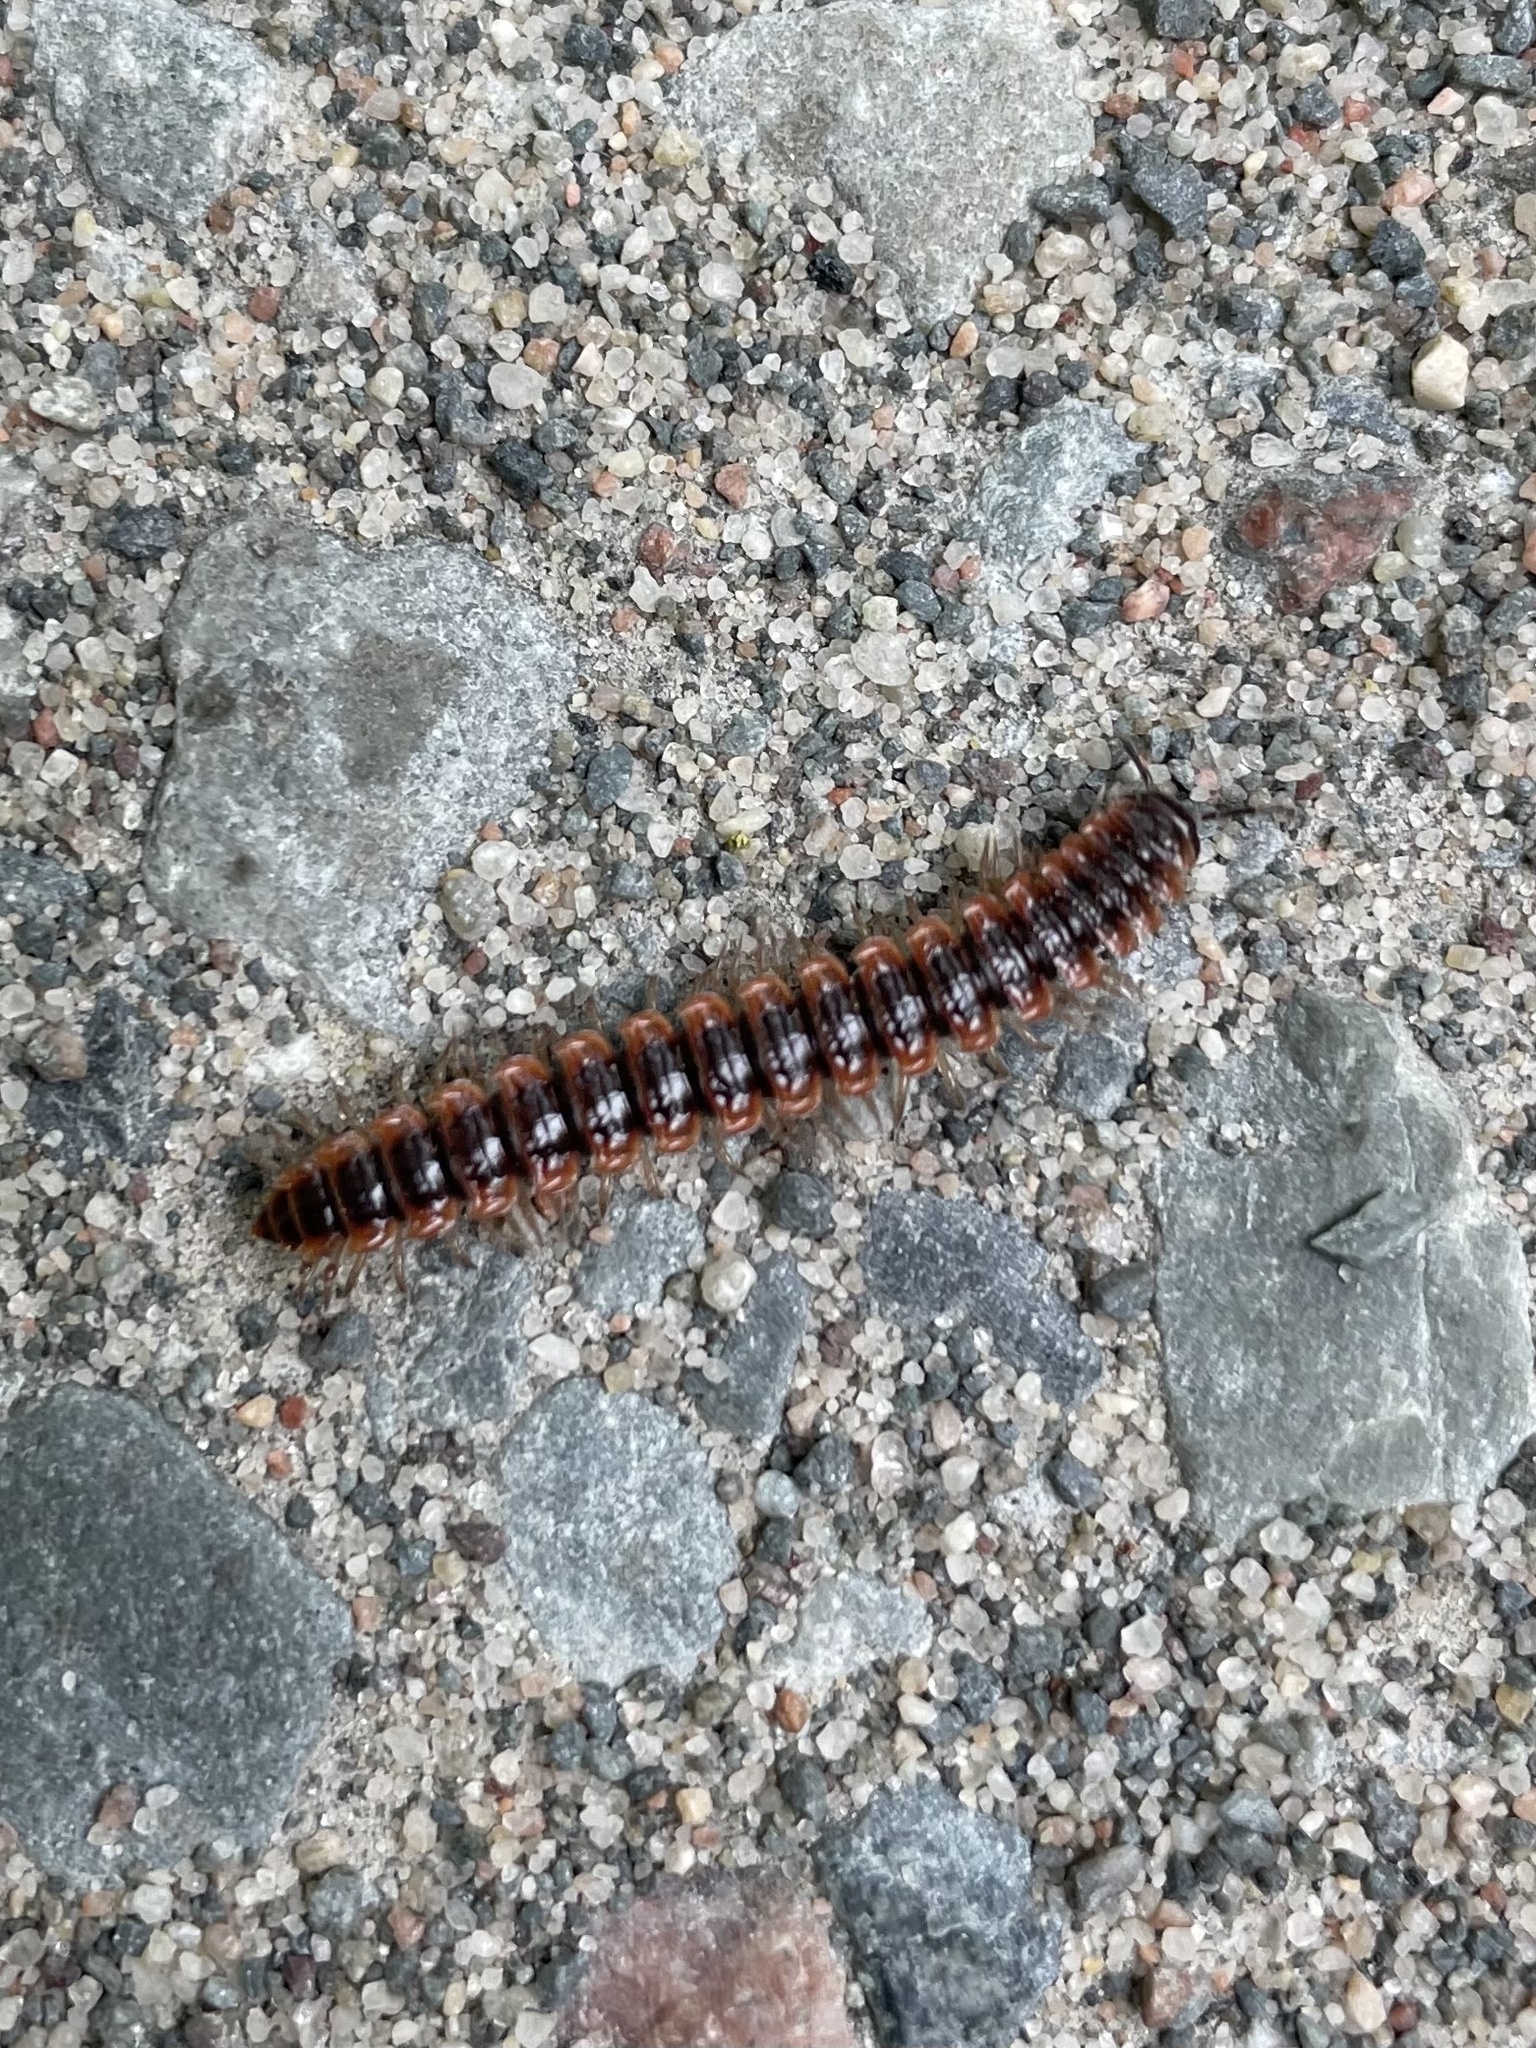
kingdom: Animalia
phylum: Arthropoda
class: Diplopoda
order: Polydesmida
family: Polydesmidae
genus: Pseudopolydesmus
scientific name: Pseudopolydesmus canadensis
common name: Canadian flat-back millipede
